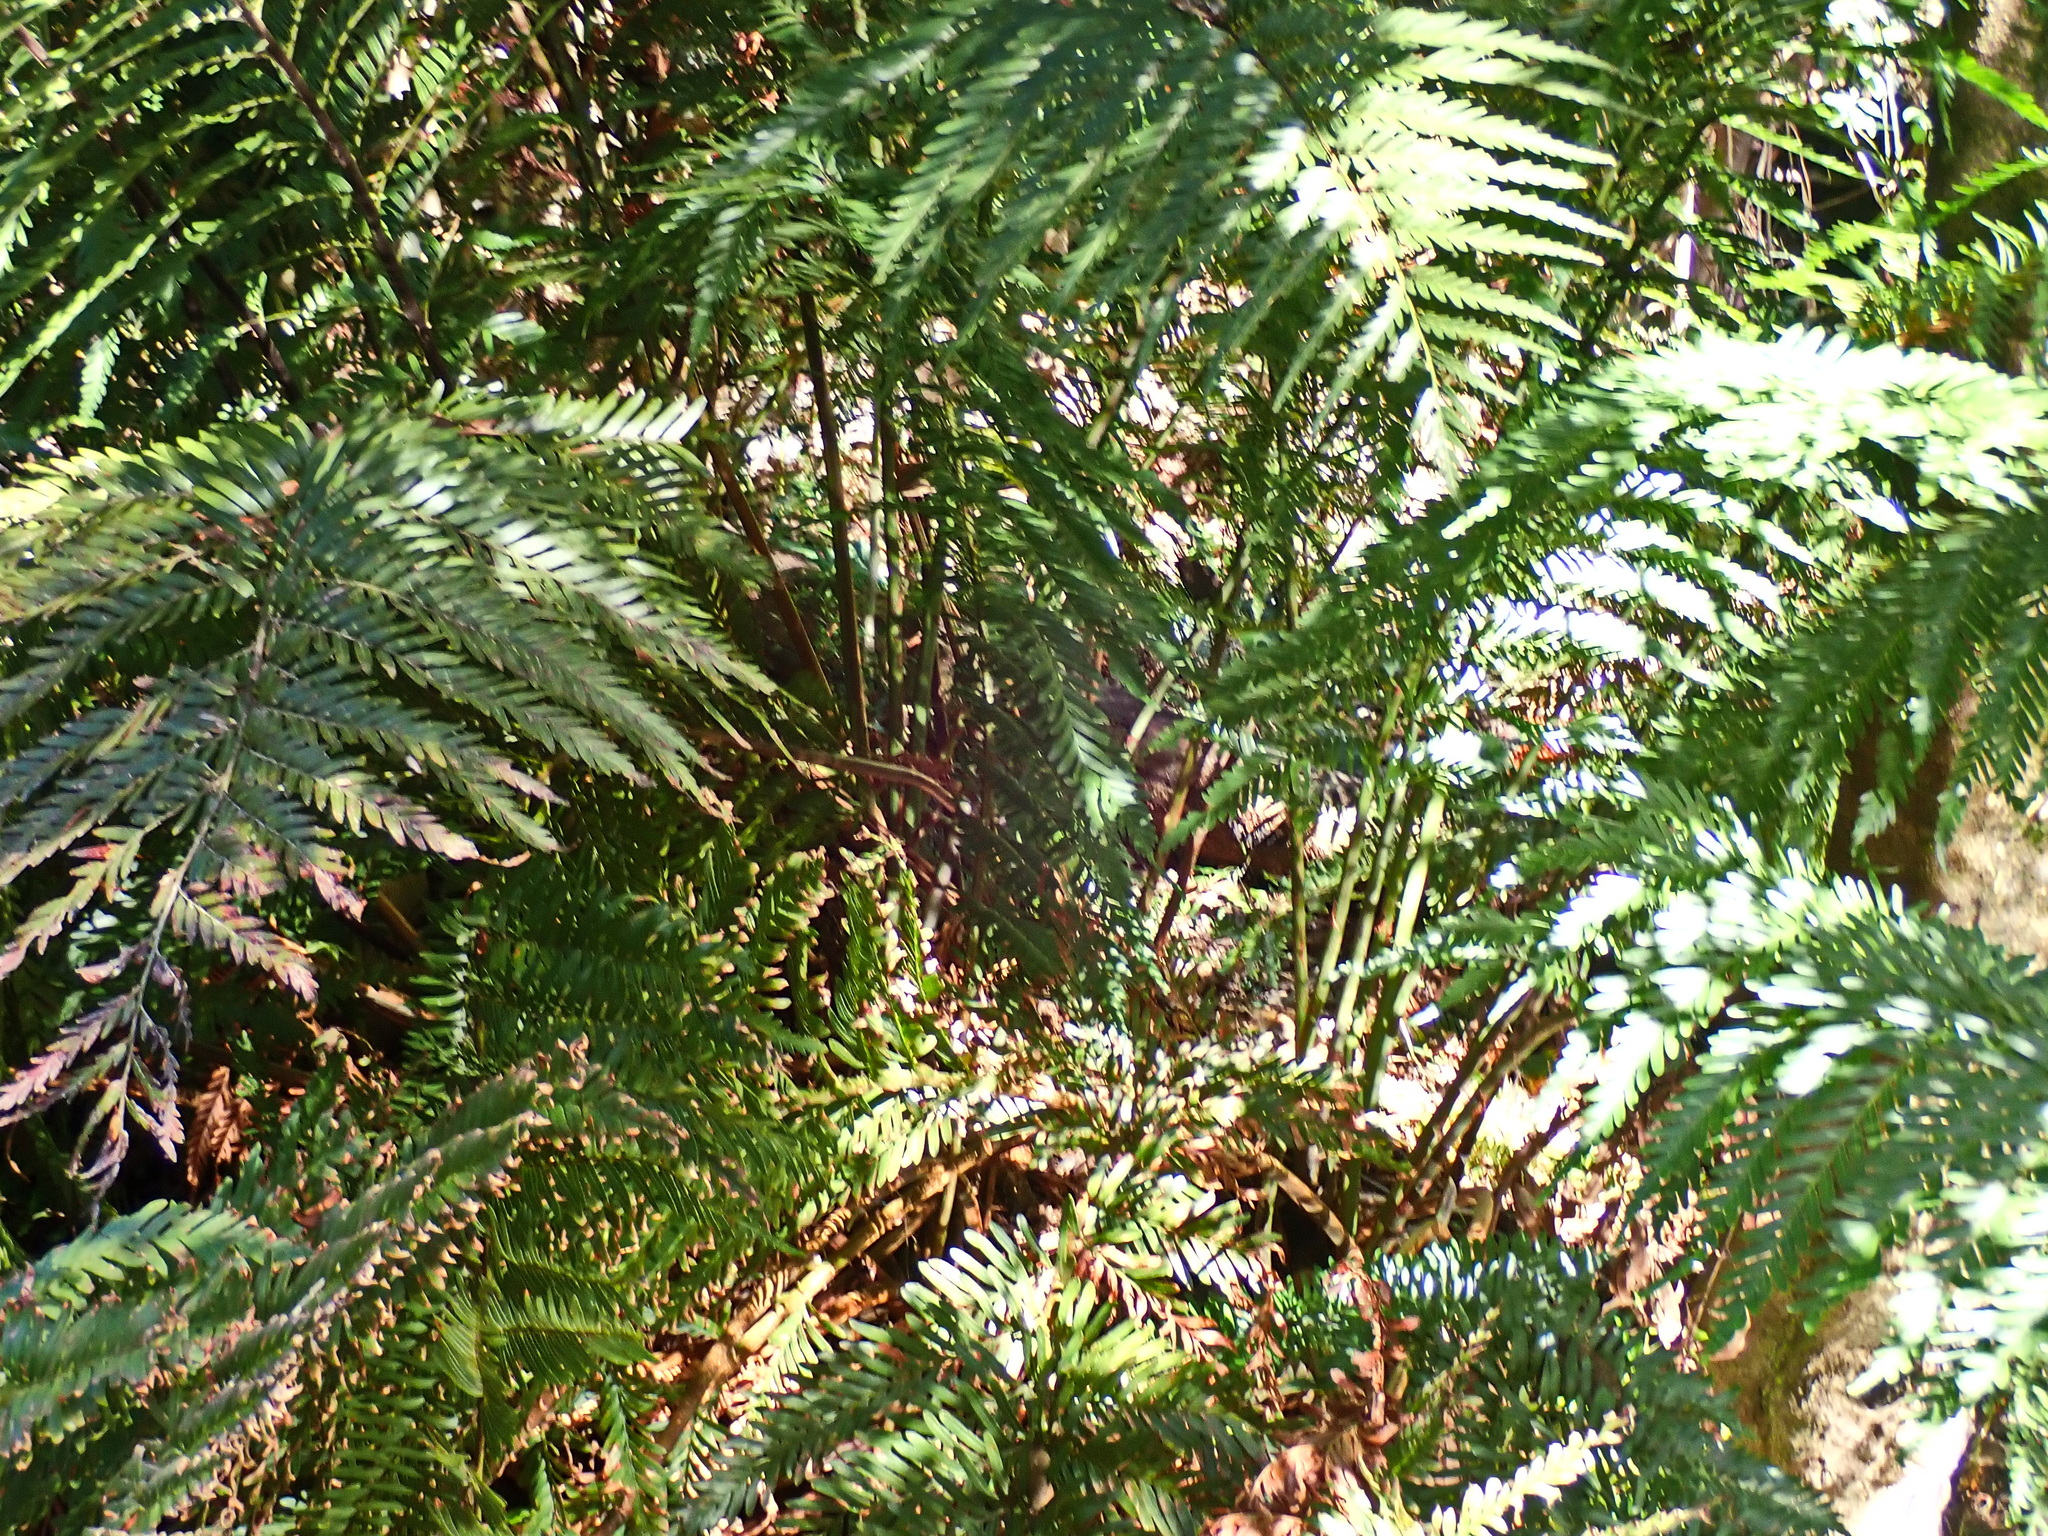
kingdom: Plantae
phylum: Tracheophyta
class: Polypodiopsida
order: Osmundales
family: Osmundaceae
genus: Todea
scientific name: Todea barbara
